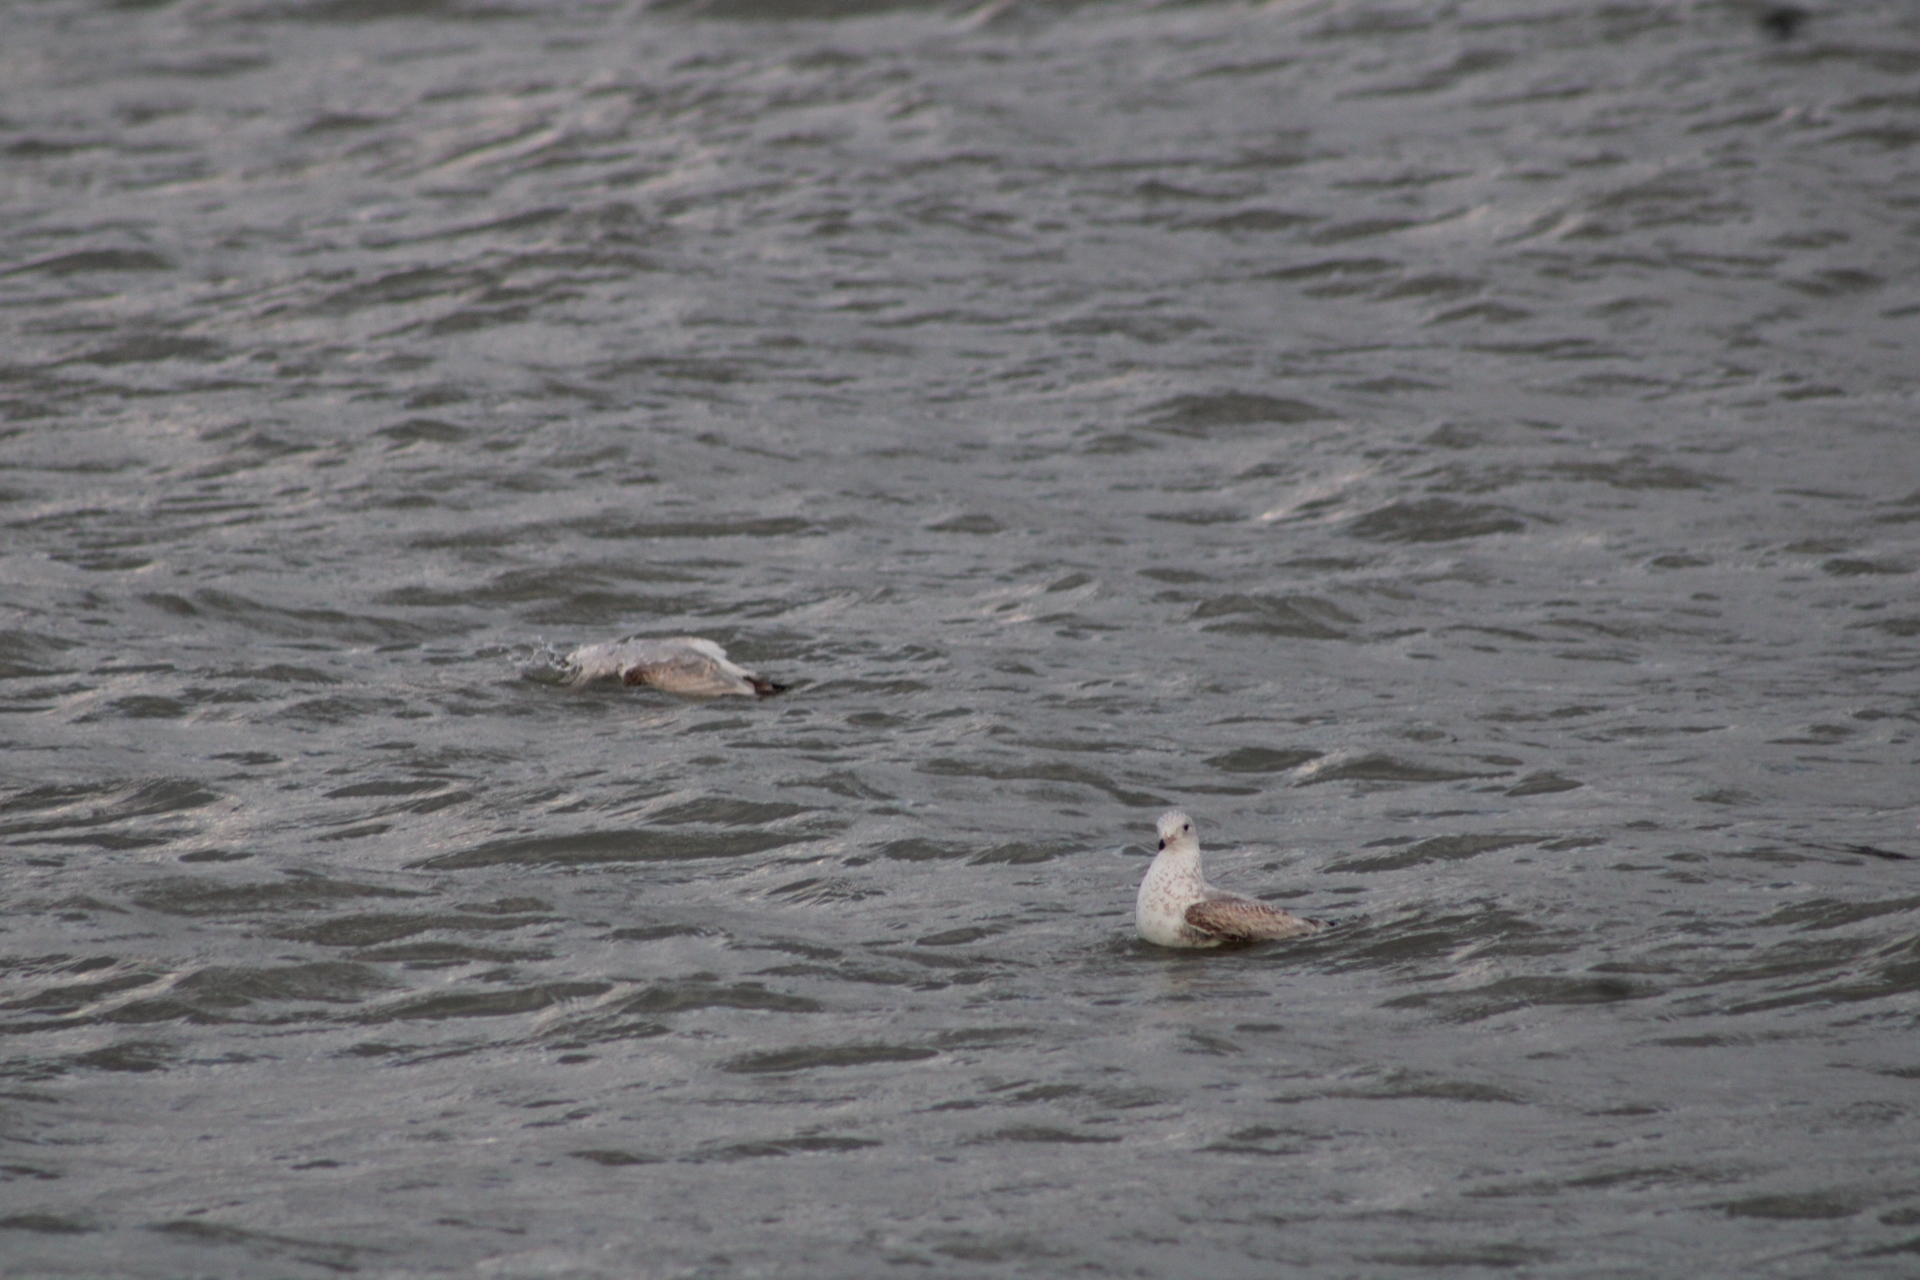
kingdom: Animalia
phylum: Chordata
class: Aves
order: Charadriiformes
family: Laridae
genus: Larus
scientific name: Larus delawarensis
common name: Ring-billed gull
